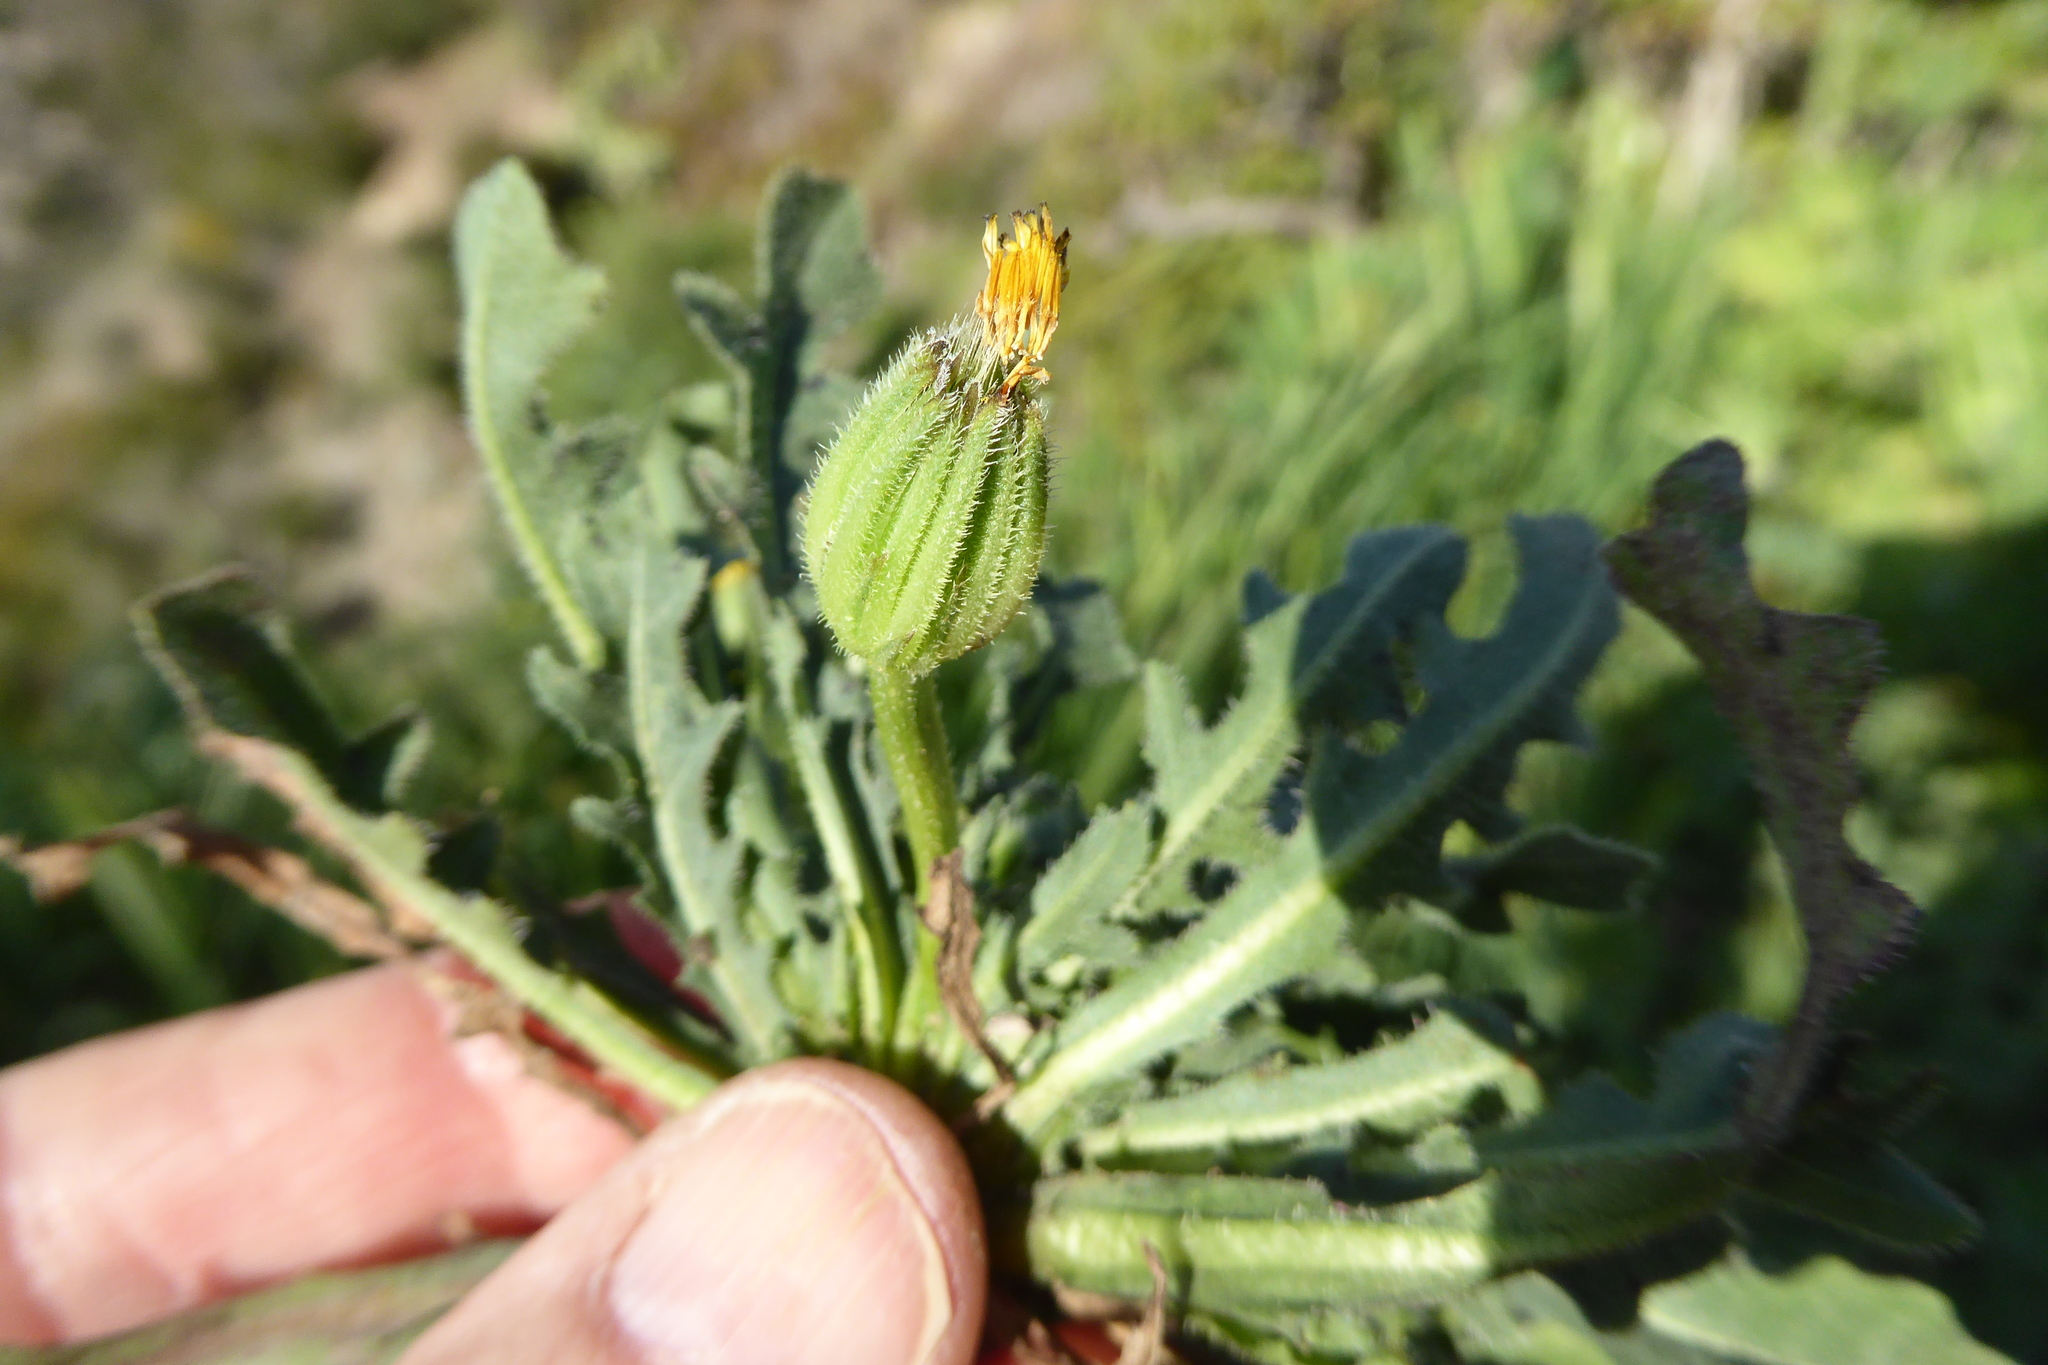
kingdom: Plantae
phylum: Tracheophyta
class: Magnoliopsida
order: Asterales
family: Asteraceae
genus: Hedypnois
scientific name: Hedypnois rhagadioloides
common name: Cretan weed
